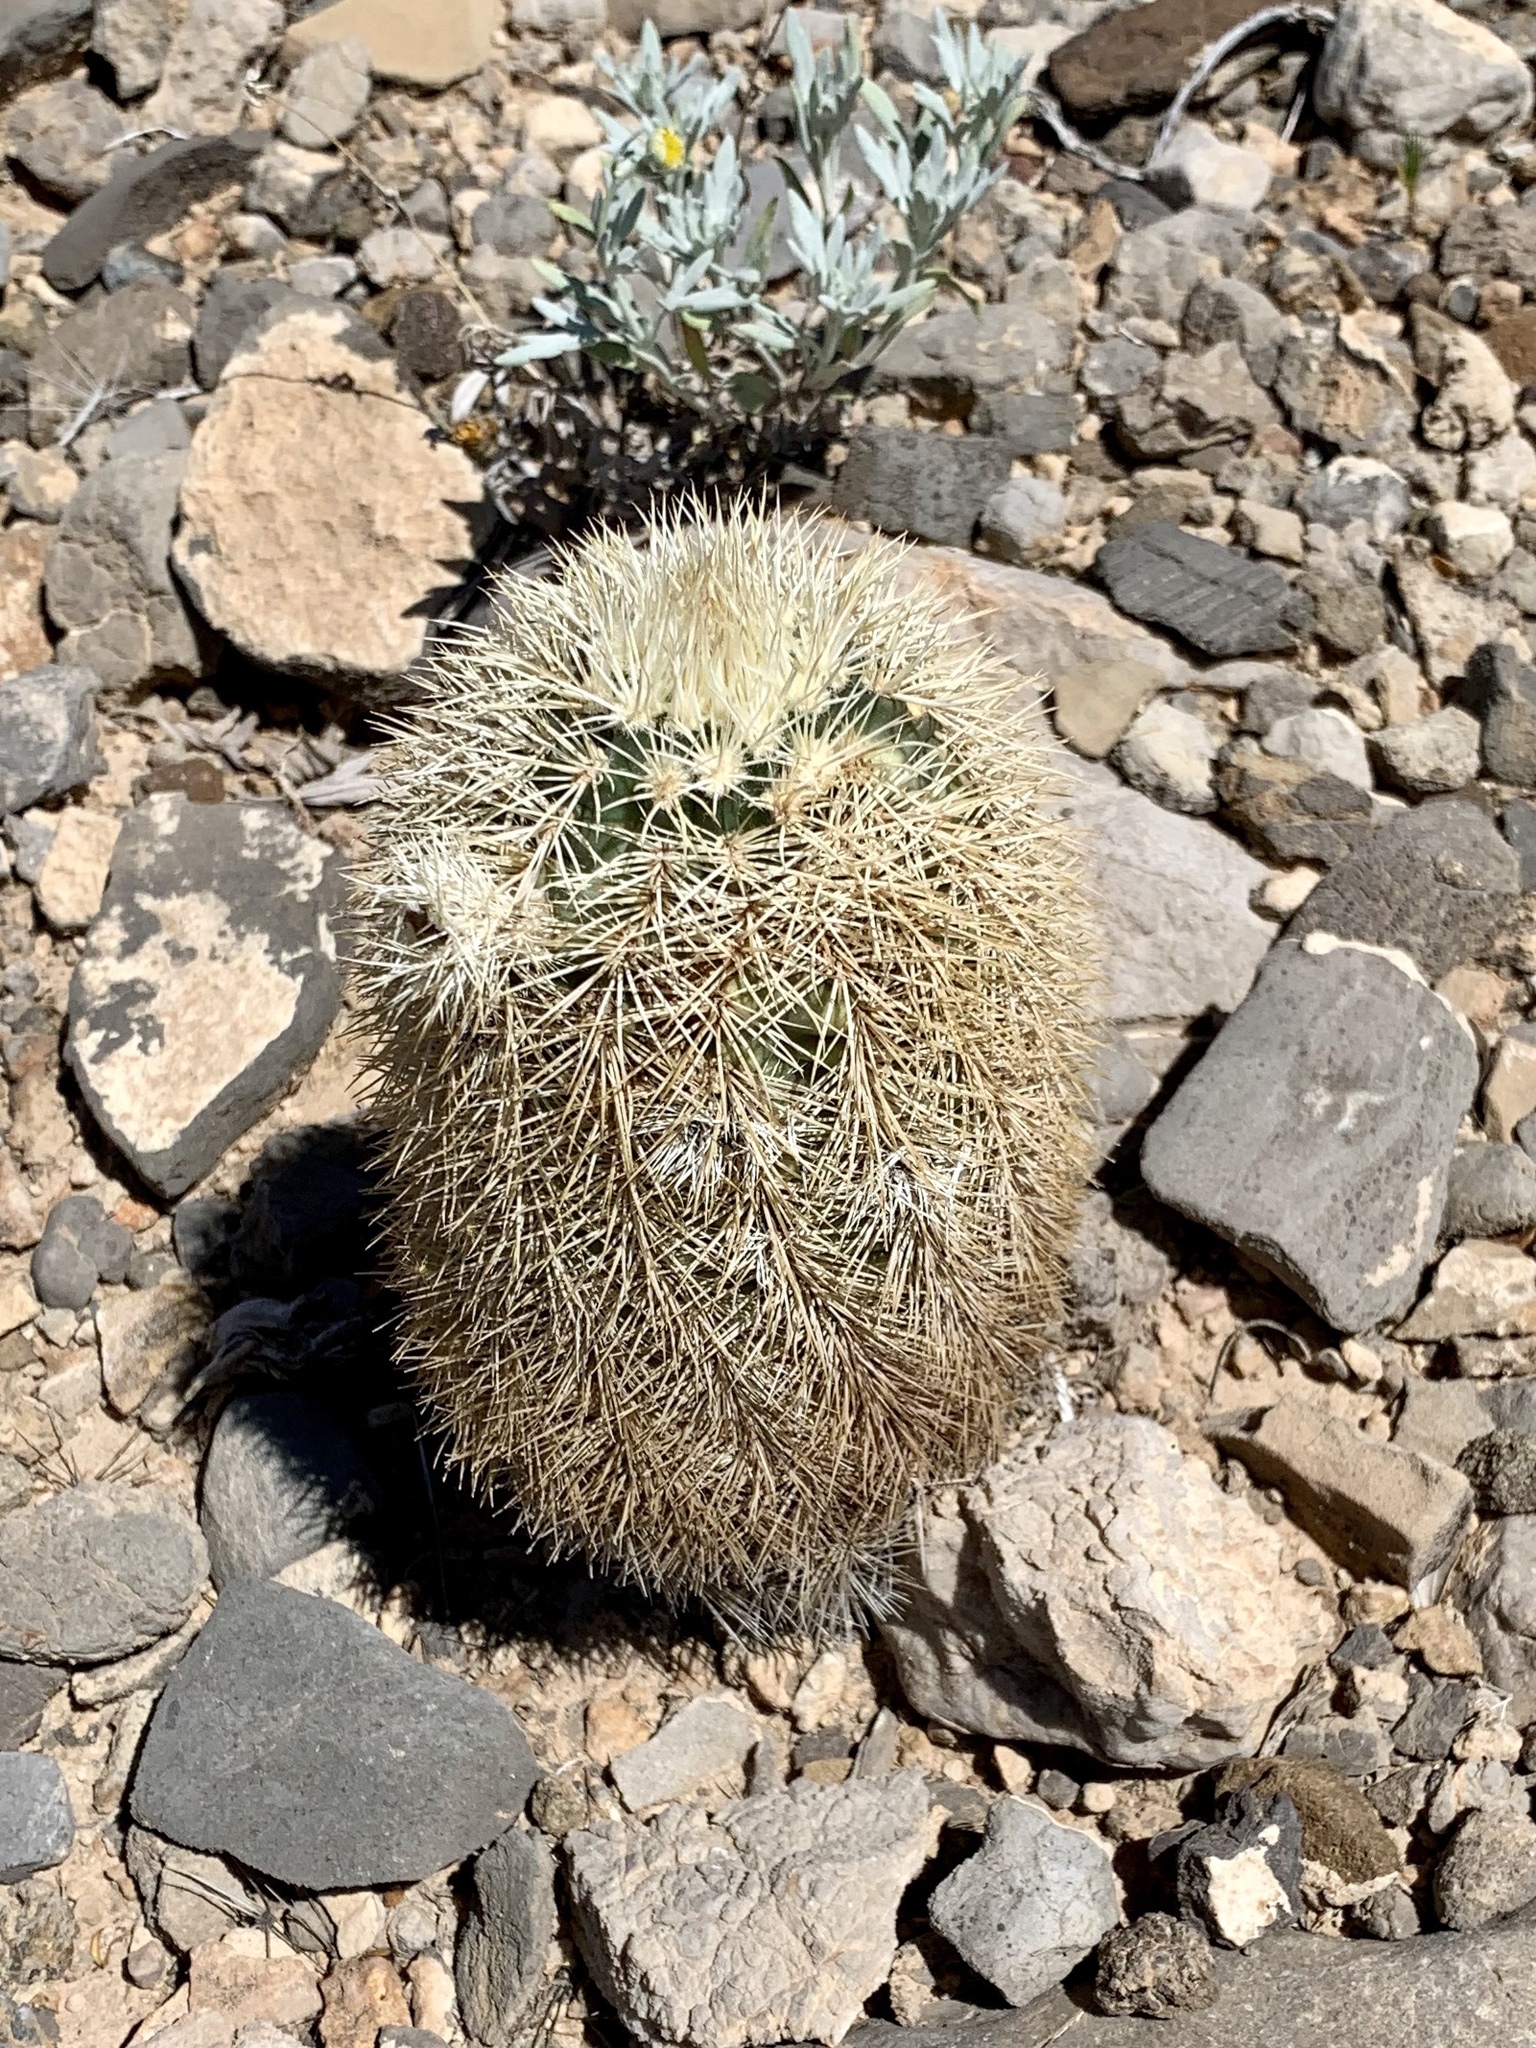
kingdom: Plantae
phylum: Tracheophyta
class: Magnoliopsida
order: Caryophyllales
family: Cactaceae
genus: Echinocereus
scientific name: Echinocereus dasyacanthus
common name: Spiny hedgehog cactus
